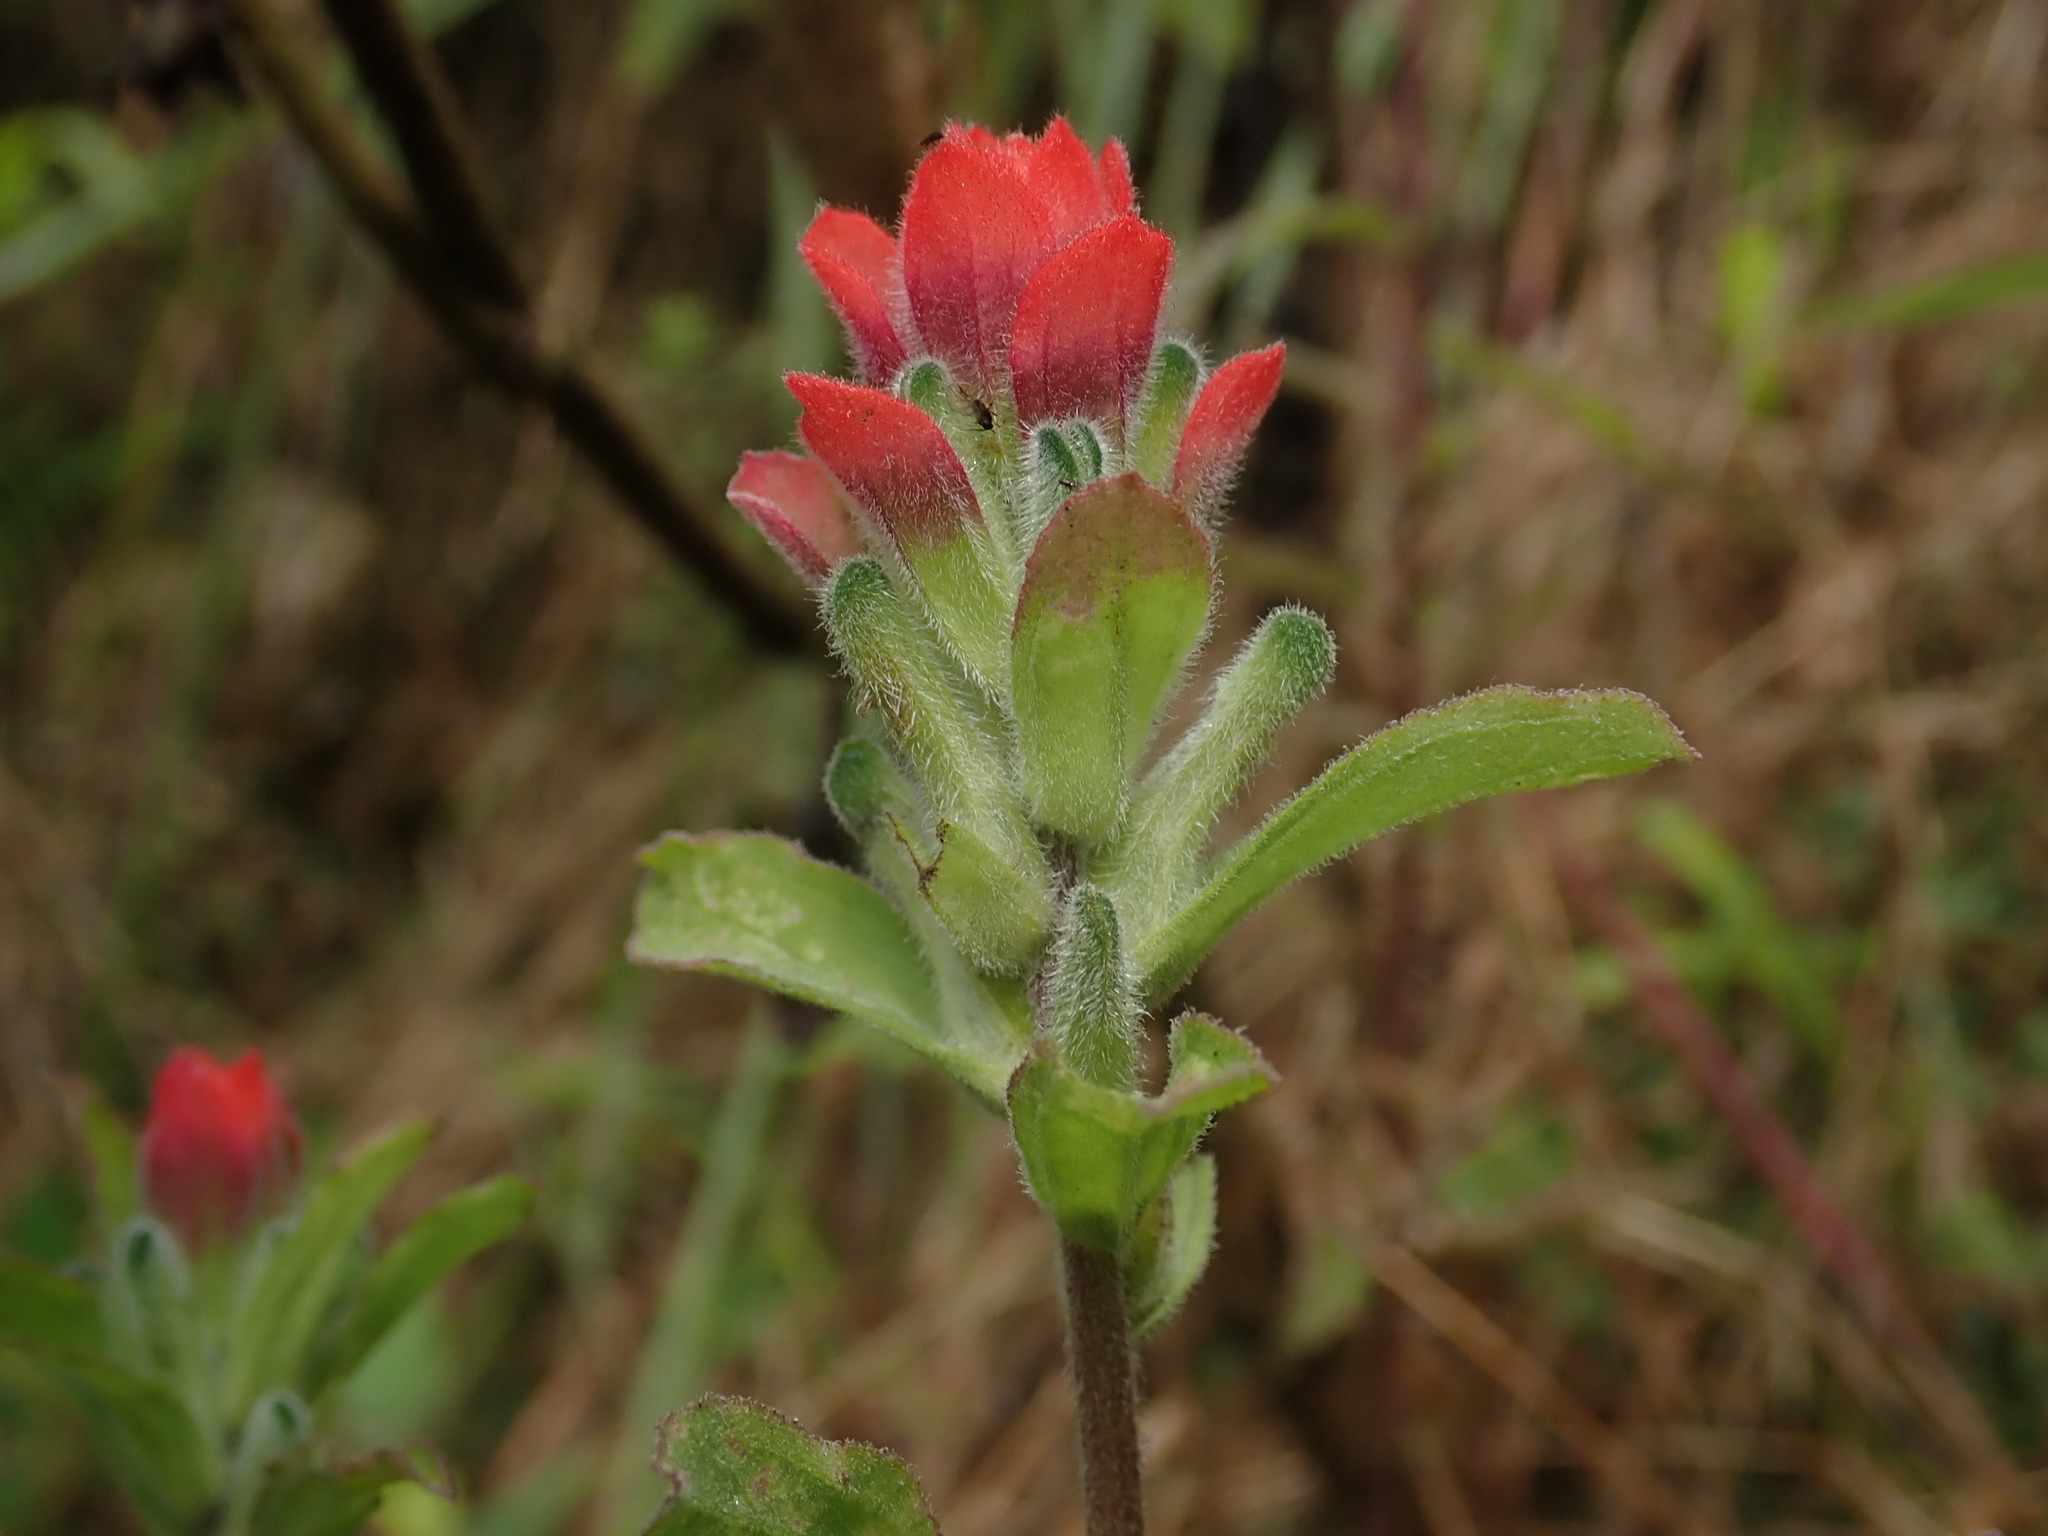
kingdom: Plantae
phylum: Tracheophyta
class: Magnoliopsida
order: Lamiales
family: Orobanchaceae
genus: Castilleja
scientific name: Castilleja arvensis
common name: Indian paintbrush
